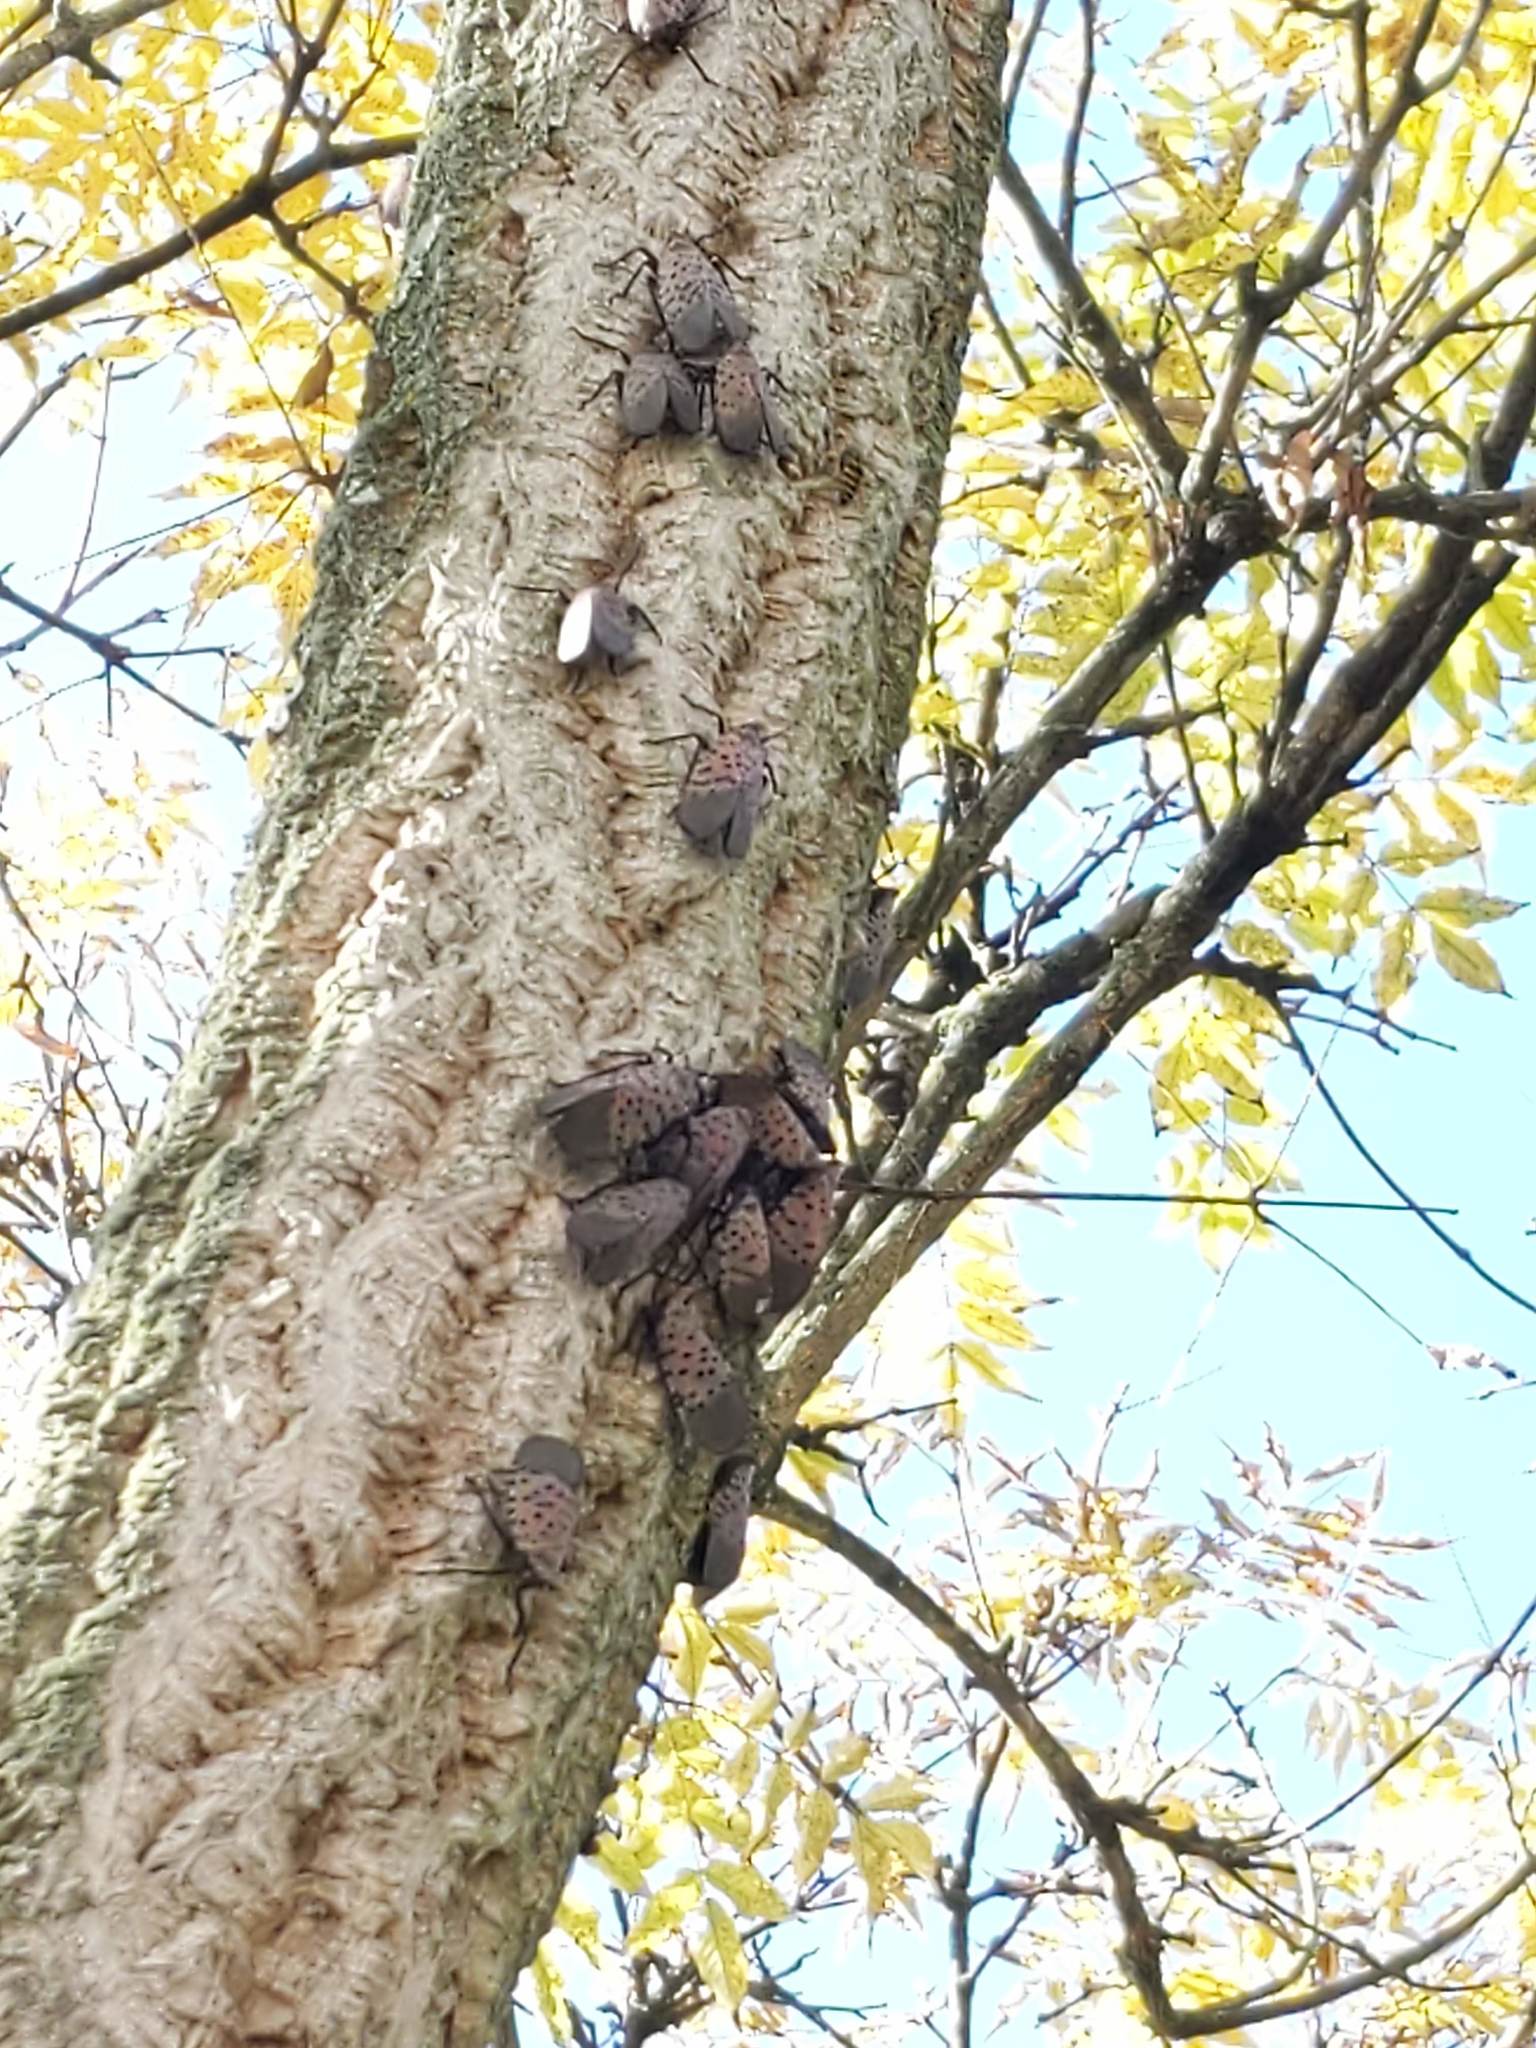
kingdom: Animalia
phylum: Arthropoda
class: Insecta
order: Hemiptera
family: Fulgoridae
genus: Lycorma
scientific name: Lycorma delicatula
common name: Spotted lanternfly
